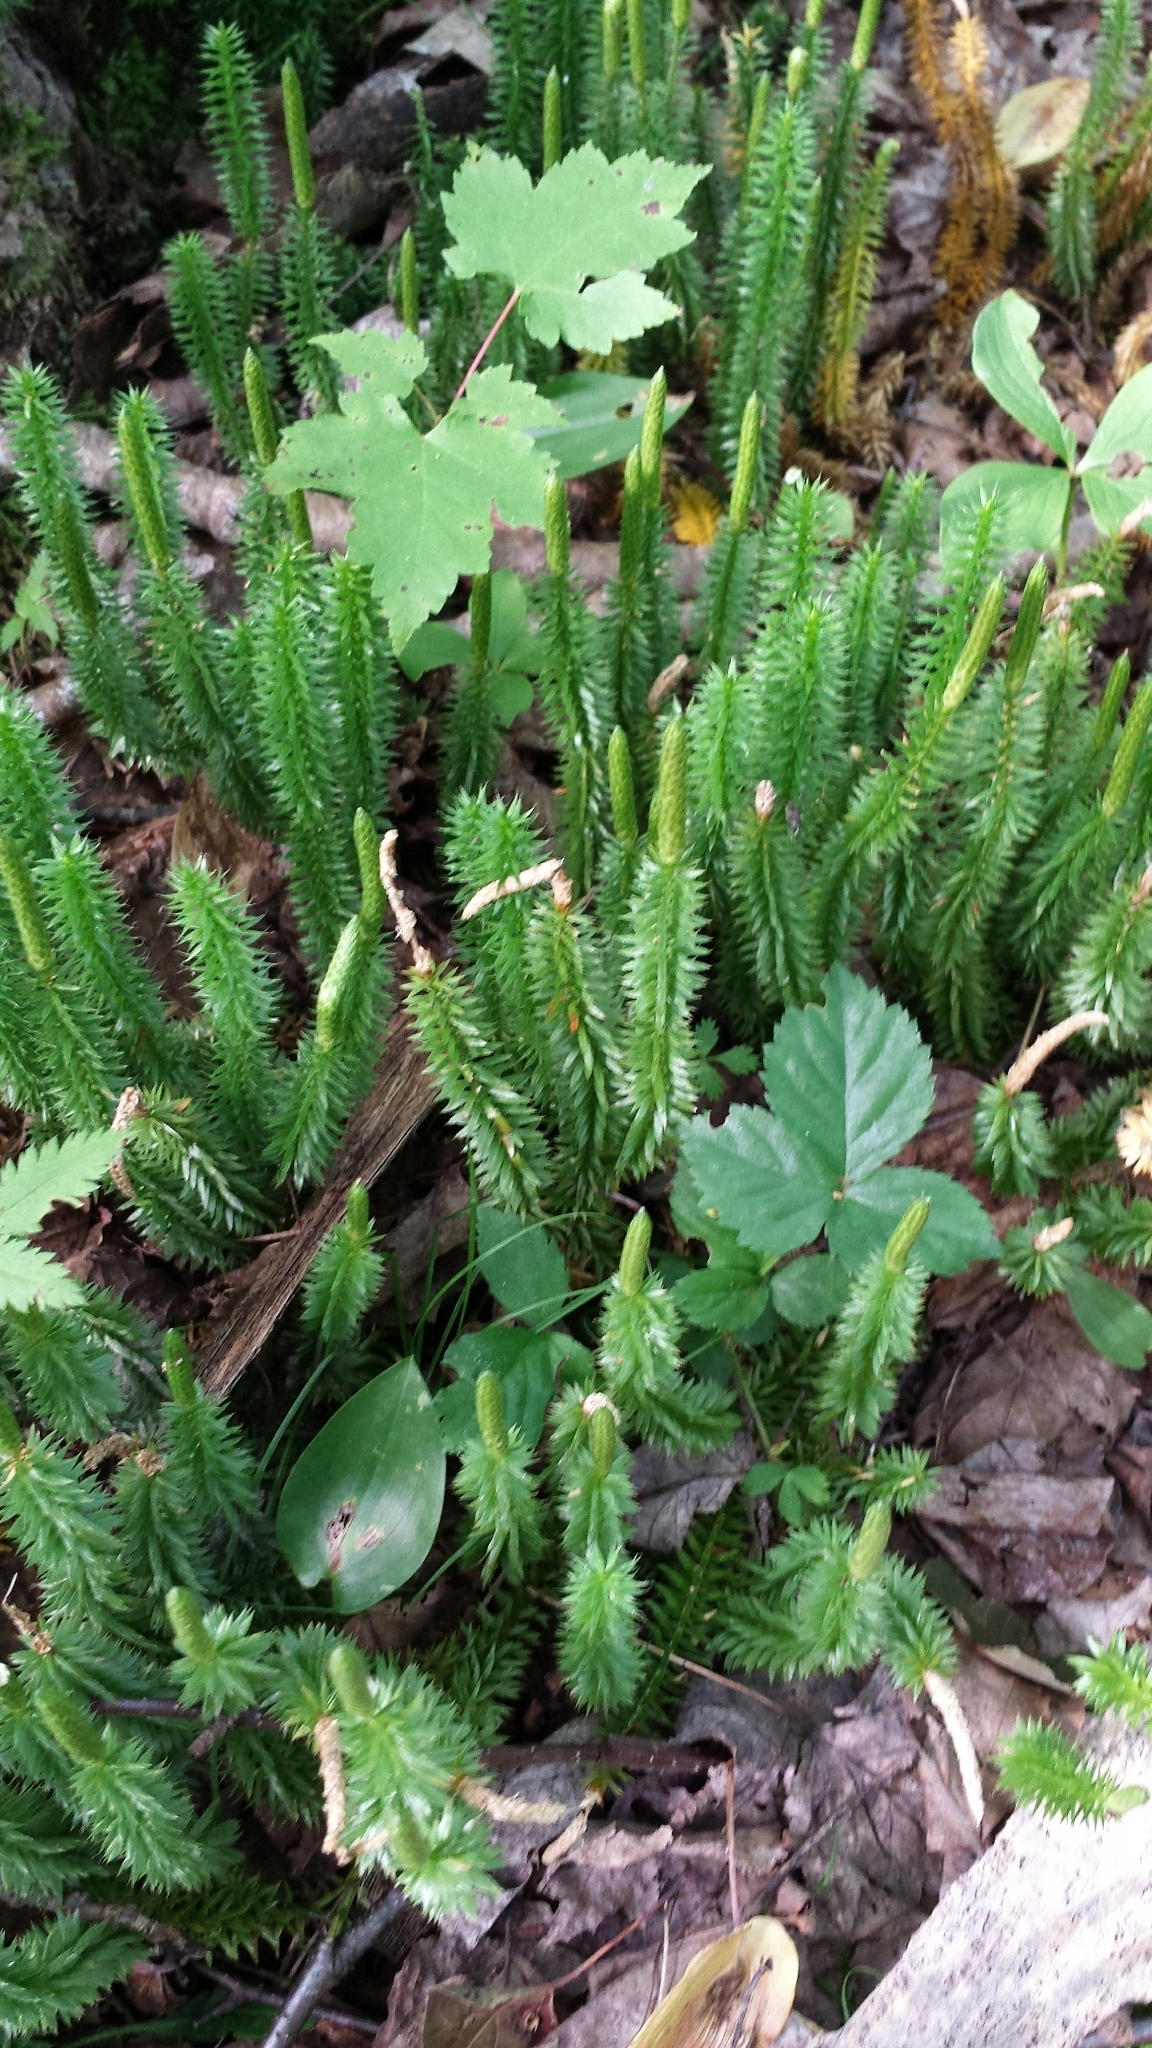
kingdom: Plantae
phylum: Tracheophyta
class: Lycopodiopsida
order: Lycopodiales
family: Lycopodiaceae
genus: Spinulum
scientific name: Spinulum annotinum
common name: Interrupted club-moss
